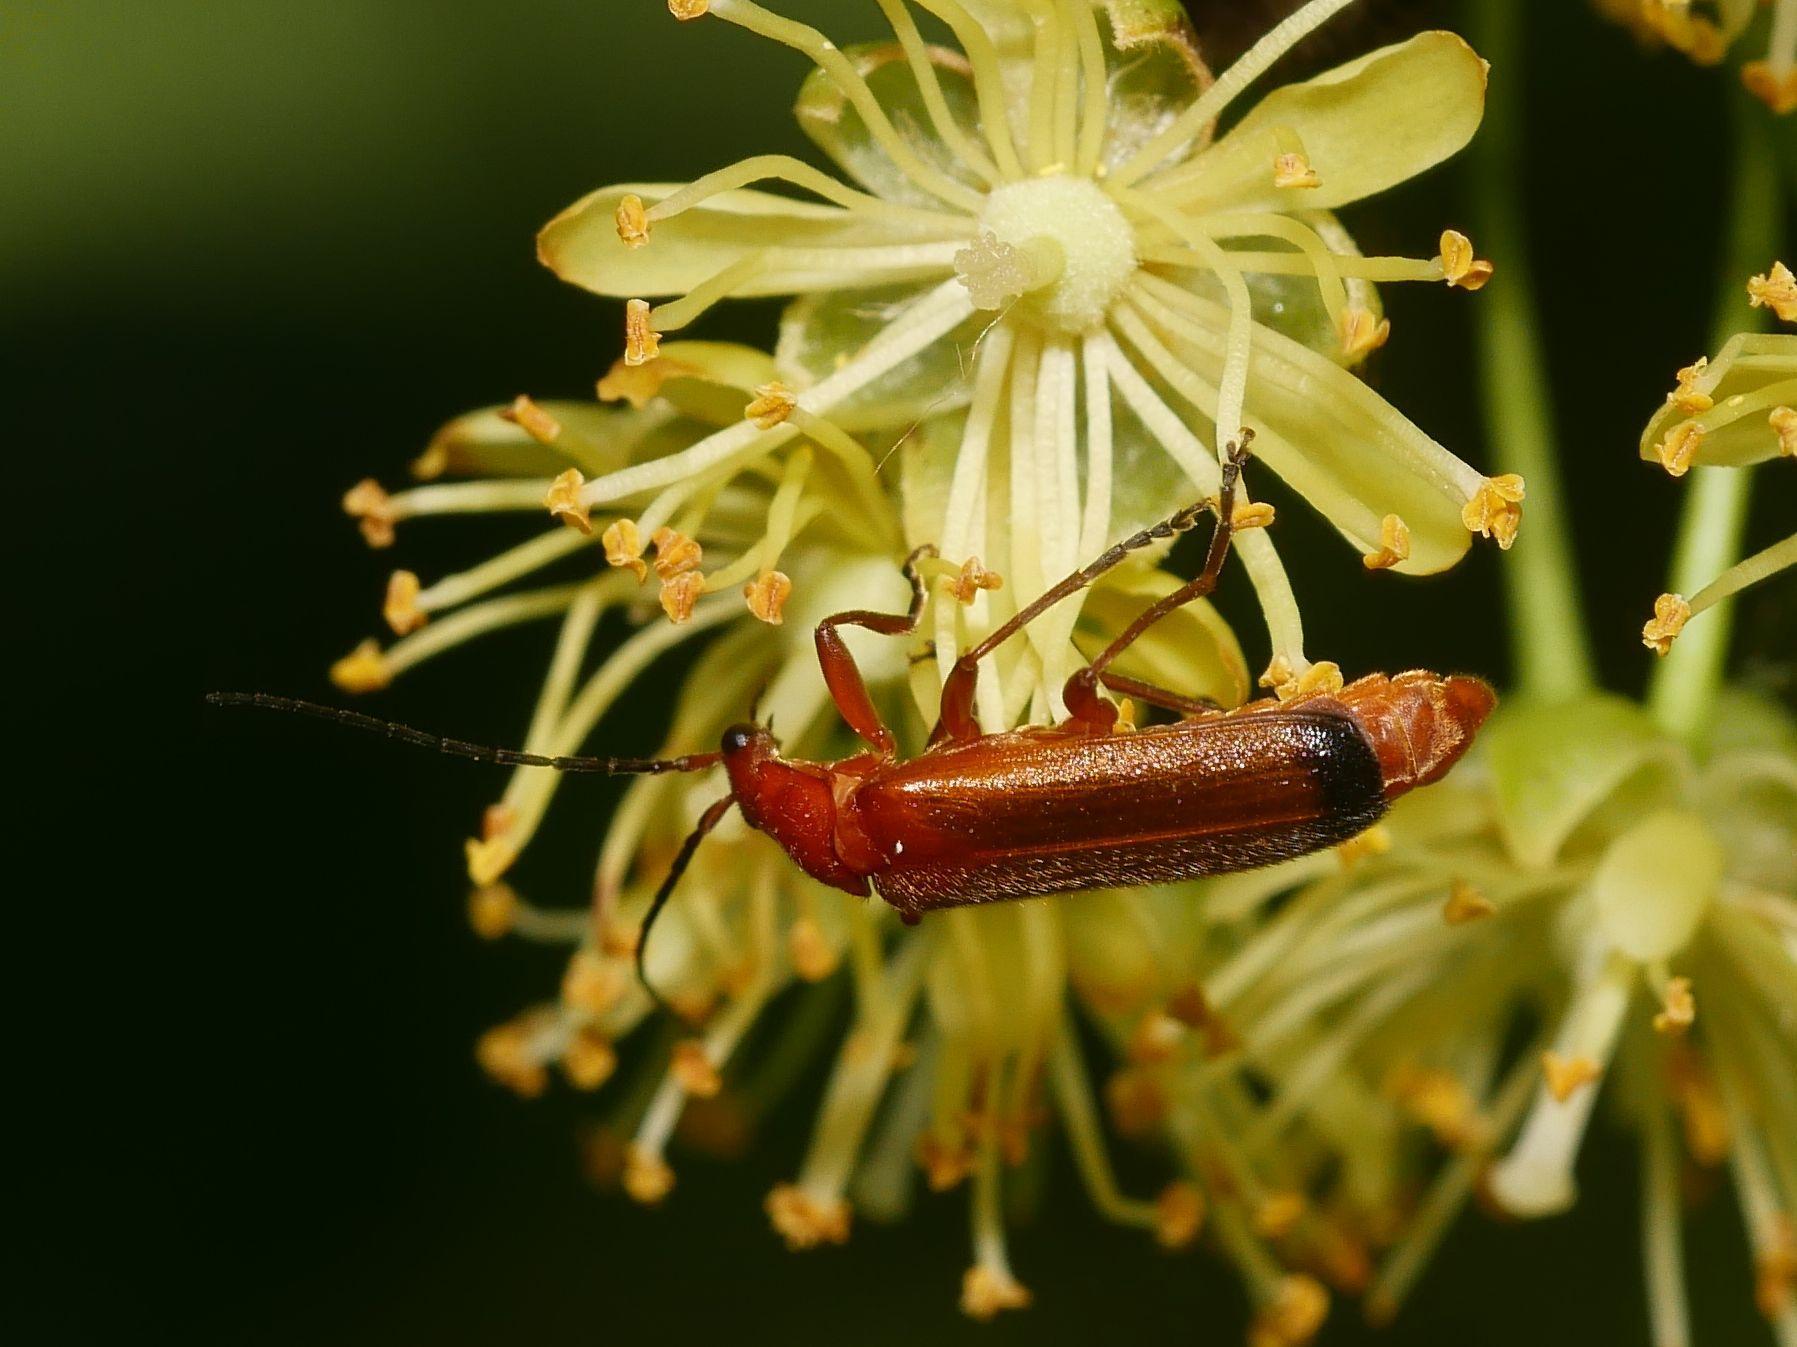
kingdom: Animalia
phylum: Arthropoda
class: Insecta
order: Coleoptera
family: Cantharidae
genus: Rhagonycha
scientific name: Rhagonycha fulva
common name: Common red soldier beetle
